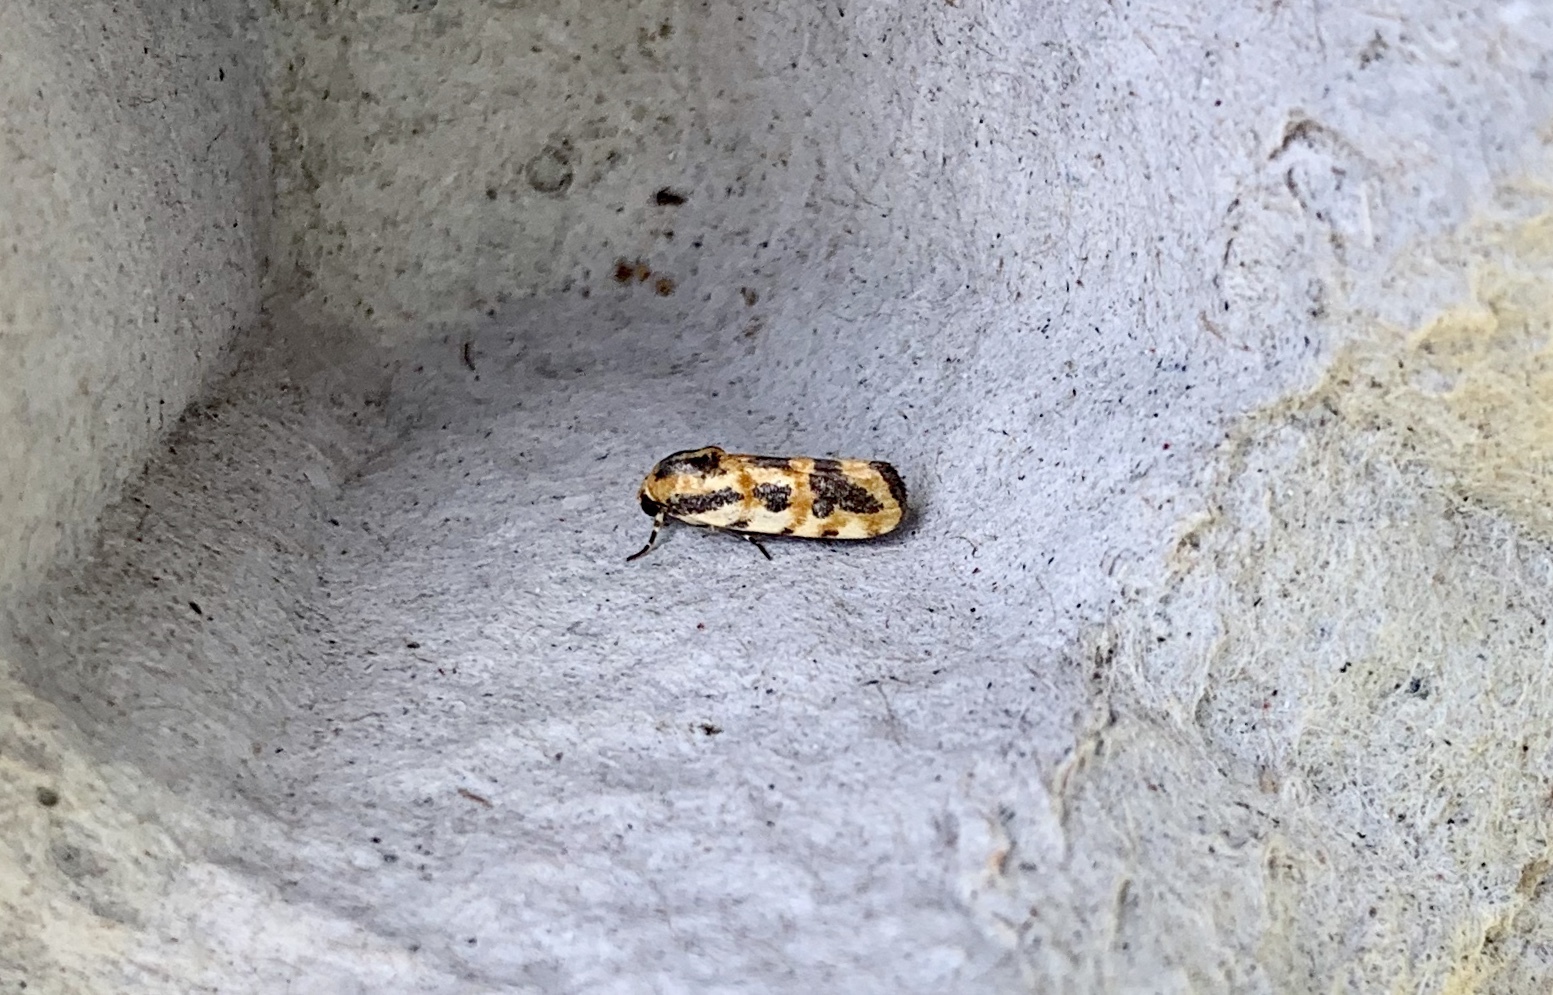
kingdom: Animalia
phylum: Arthropoda
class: Insecta
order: Lepidoptera
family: Noctuidae
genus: Acontia
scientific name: Acontia leo
